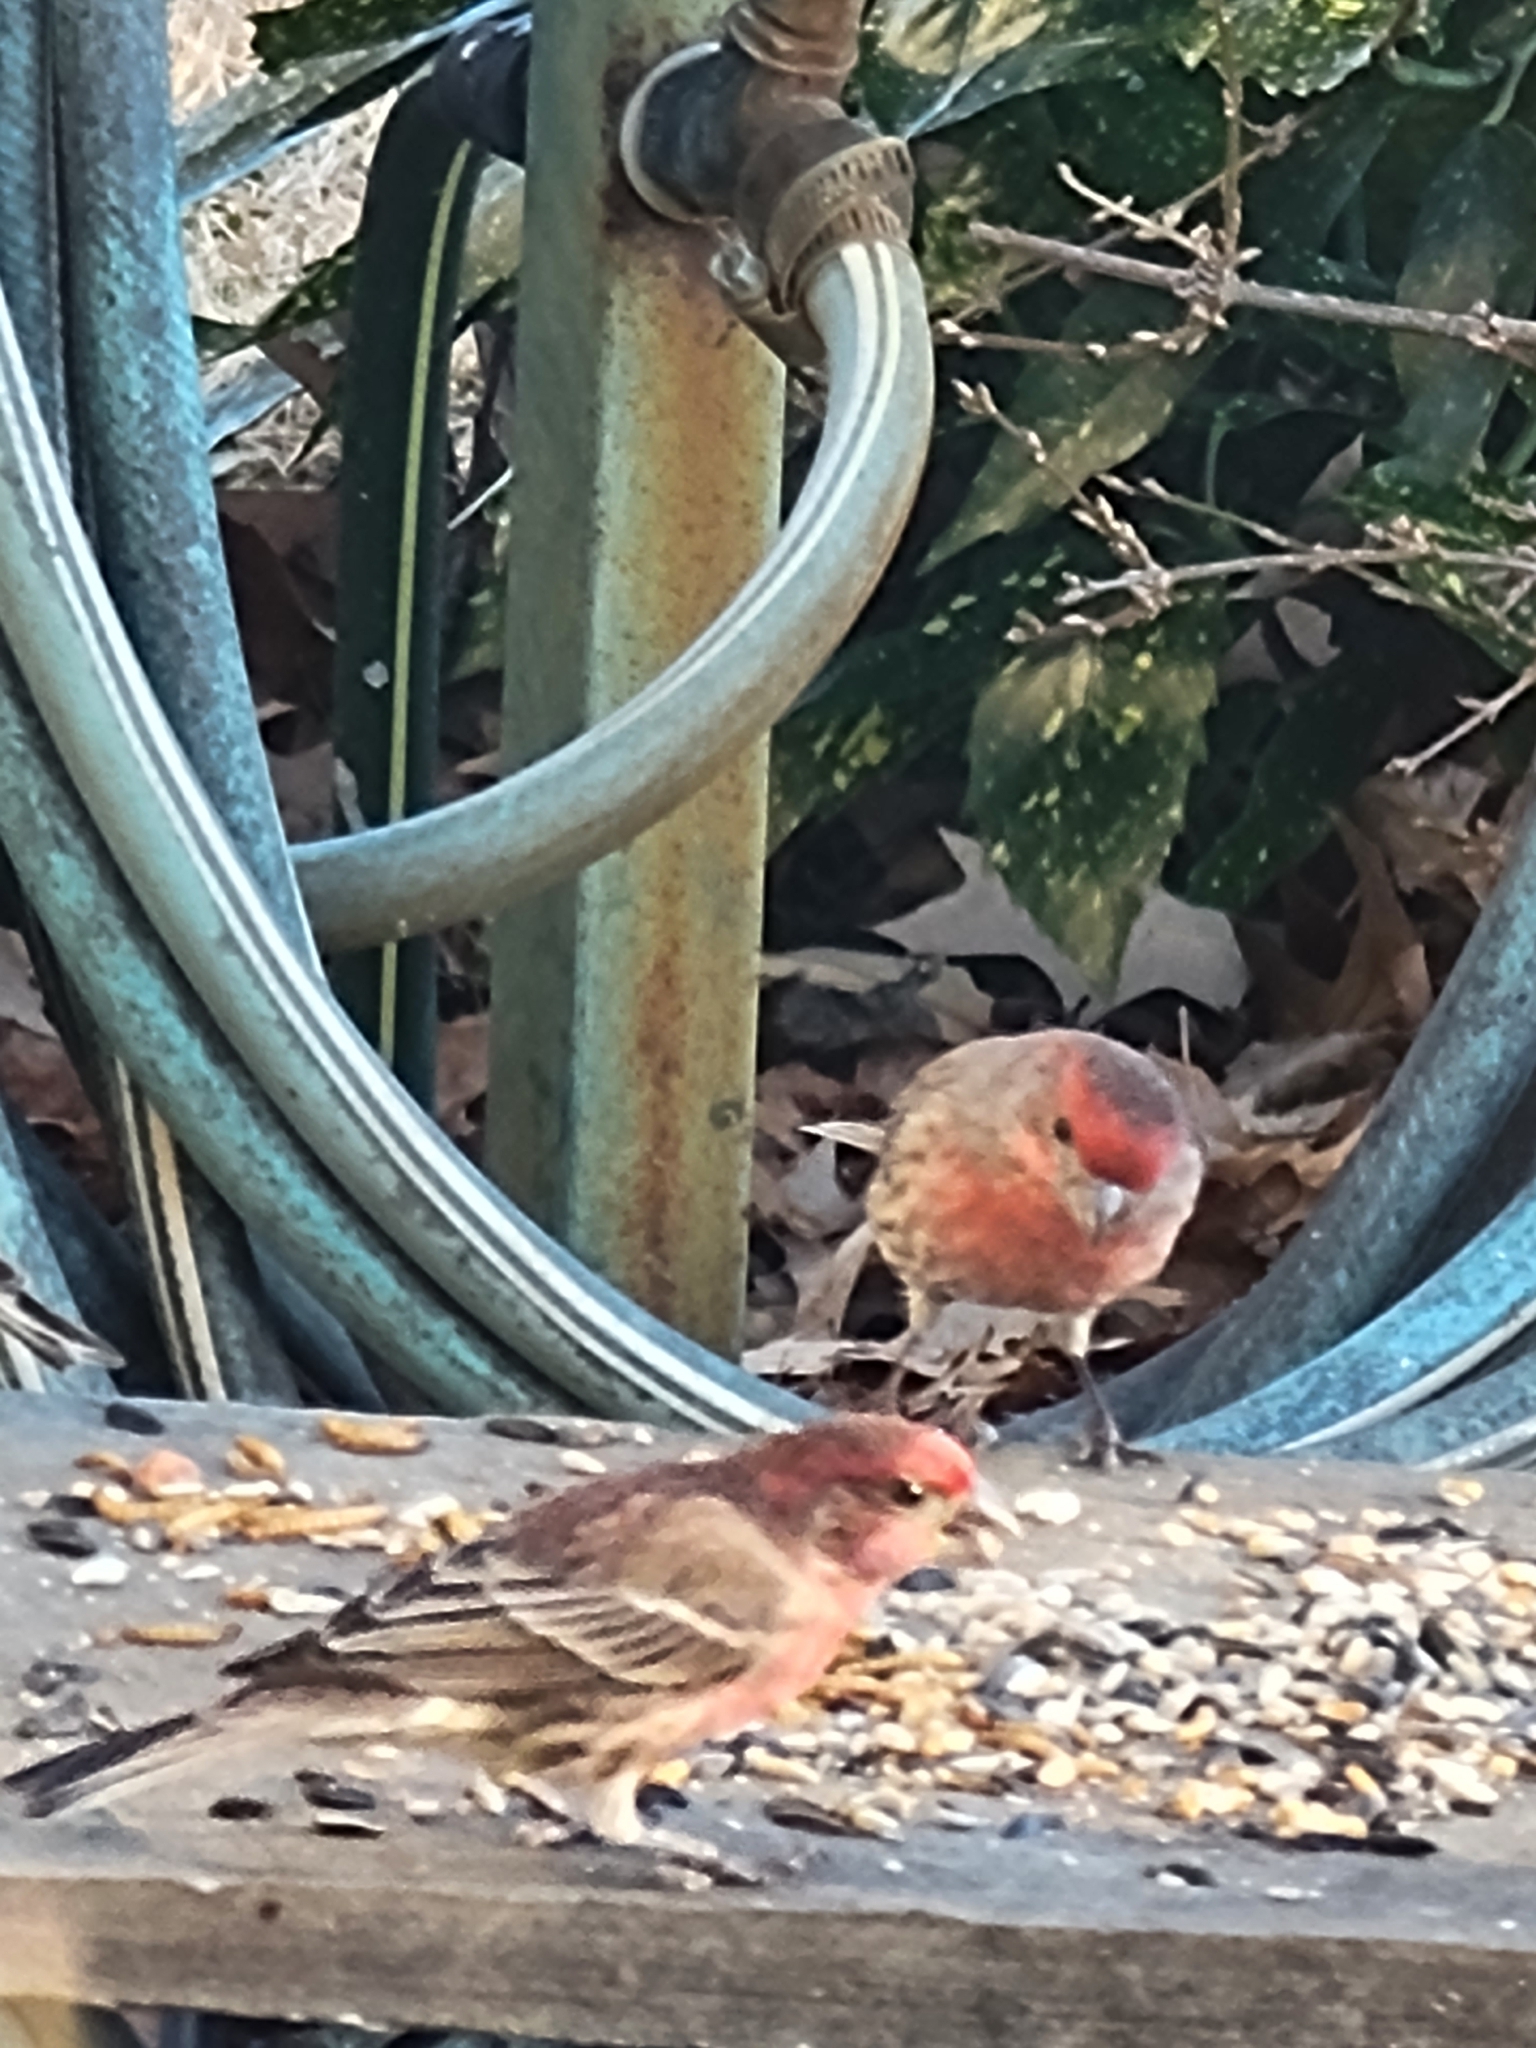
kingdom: Animalia
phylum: Chordata
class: Aves
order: Passeriformes
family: Fringillidae
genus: Haemorhous
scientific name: Haemorhous mexicanus
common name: House finch
